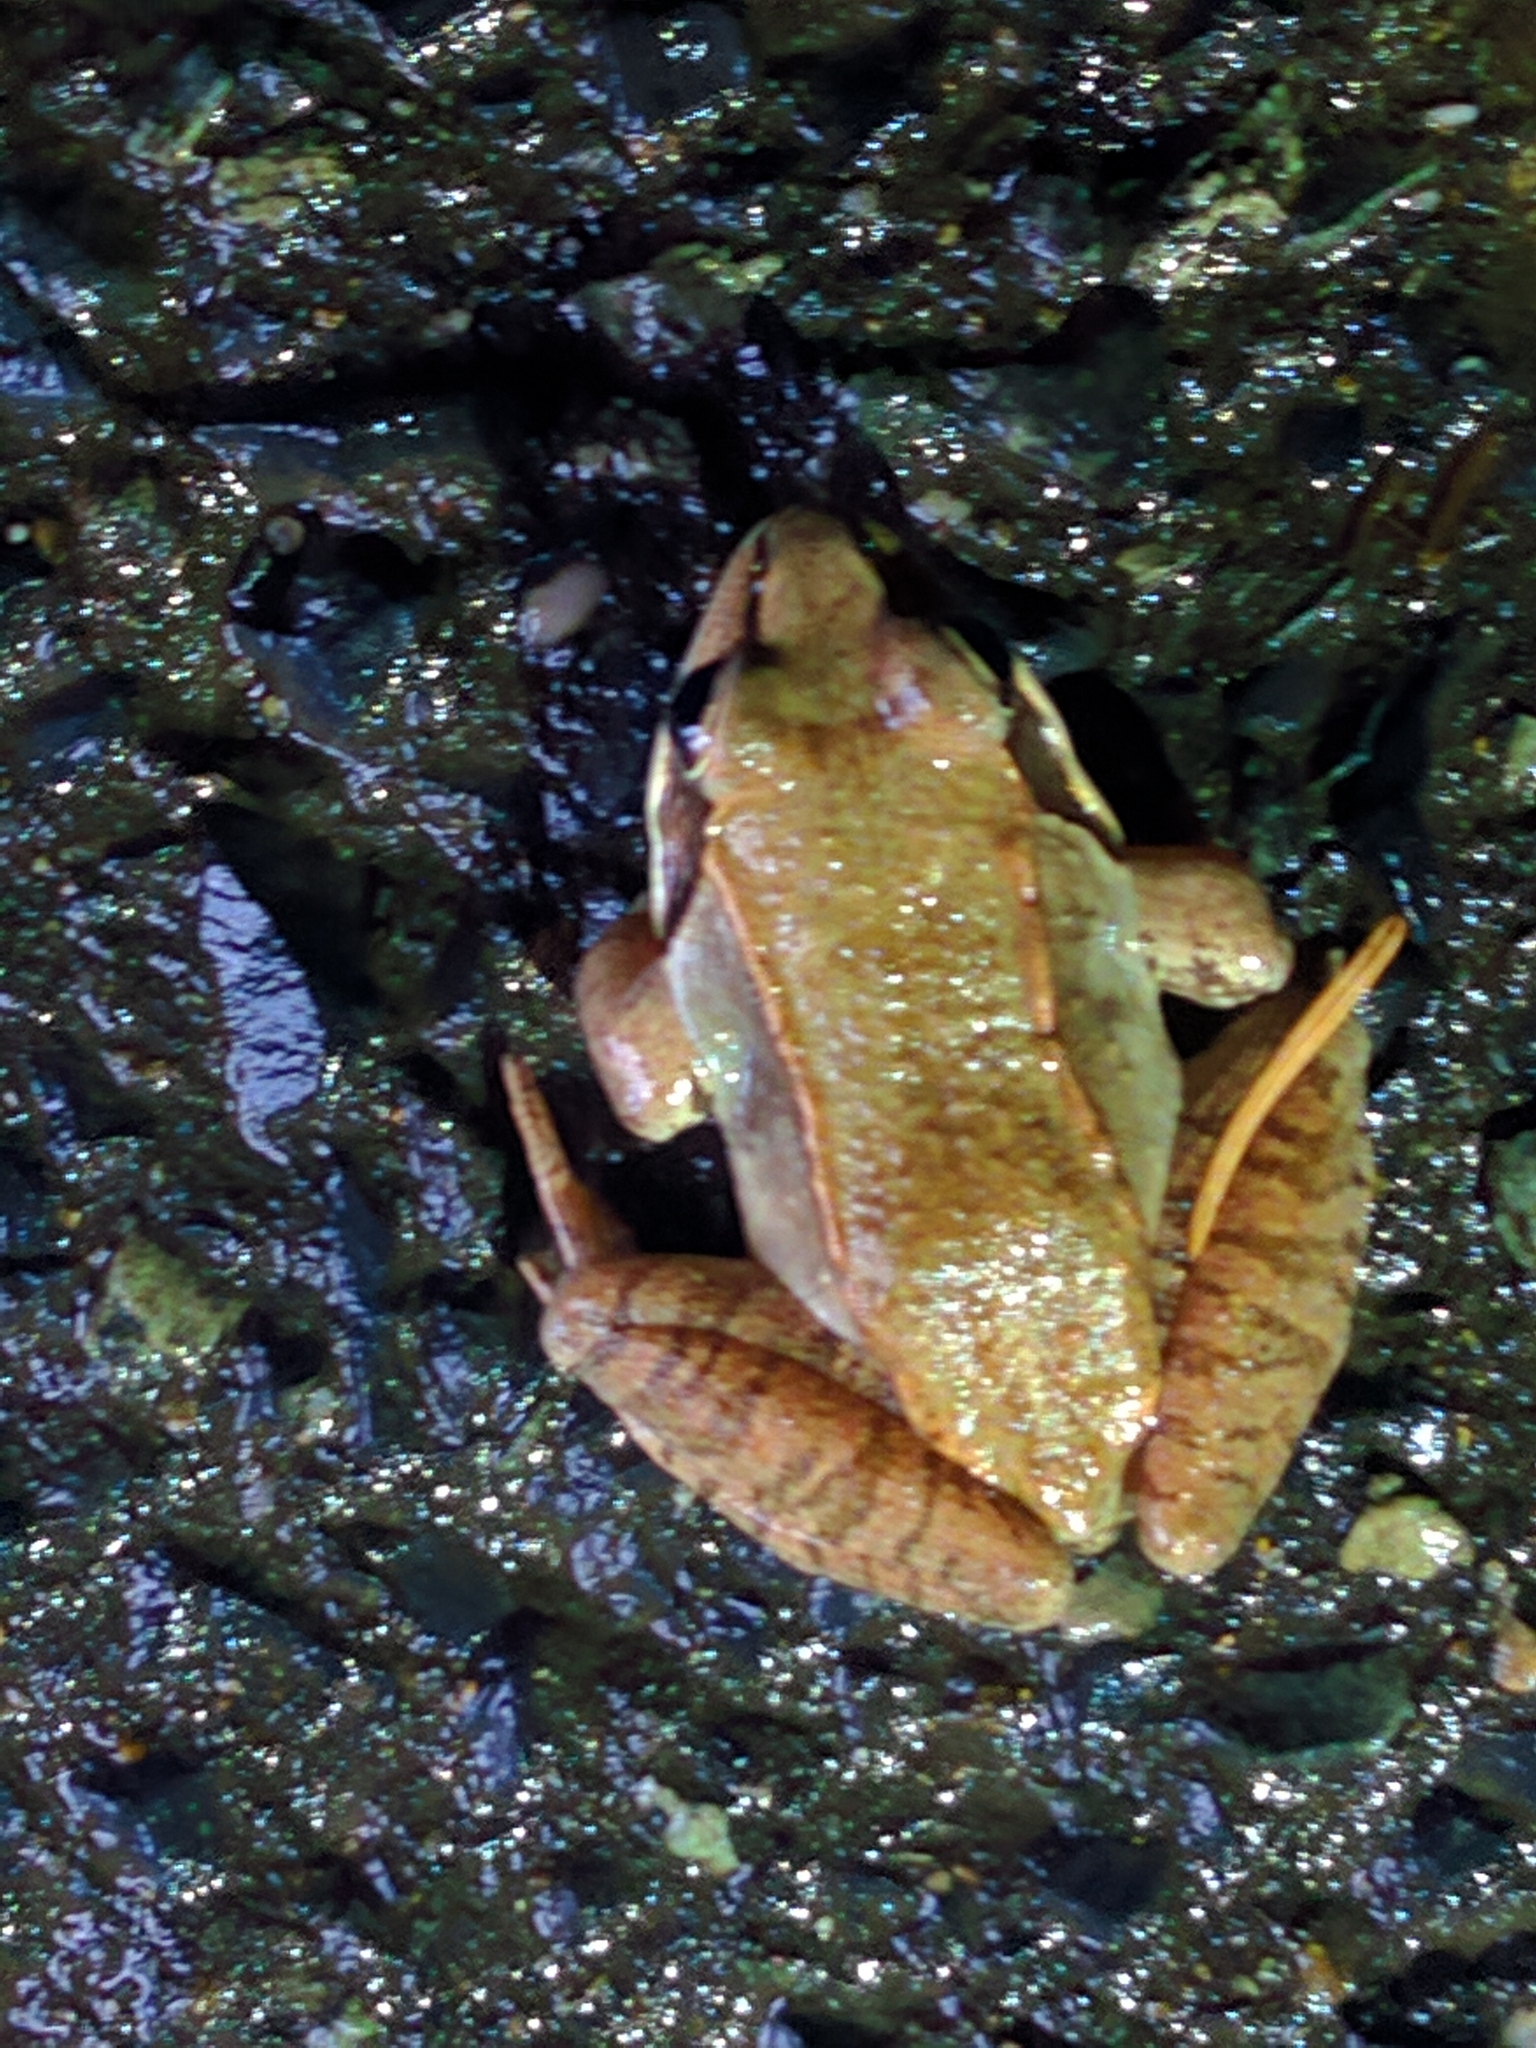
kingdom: Animalia
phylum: Chordata
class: Amphibia
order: Anura
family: Ranidae
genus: Lithobates
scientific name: Lithobates sylvaticus
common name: Wood frog
